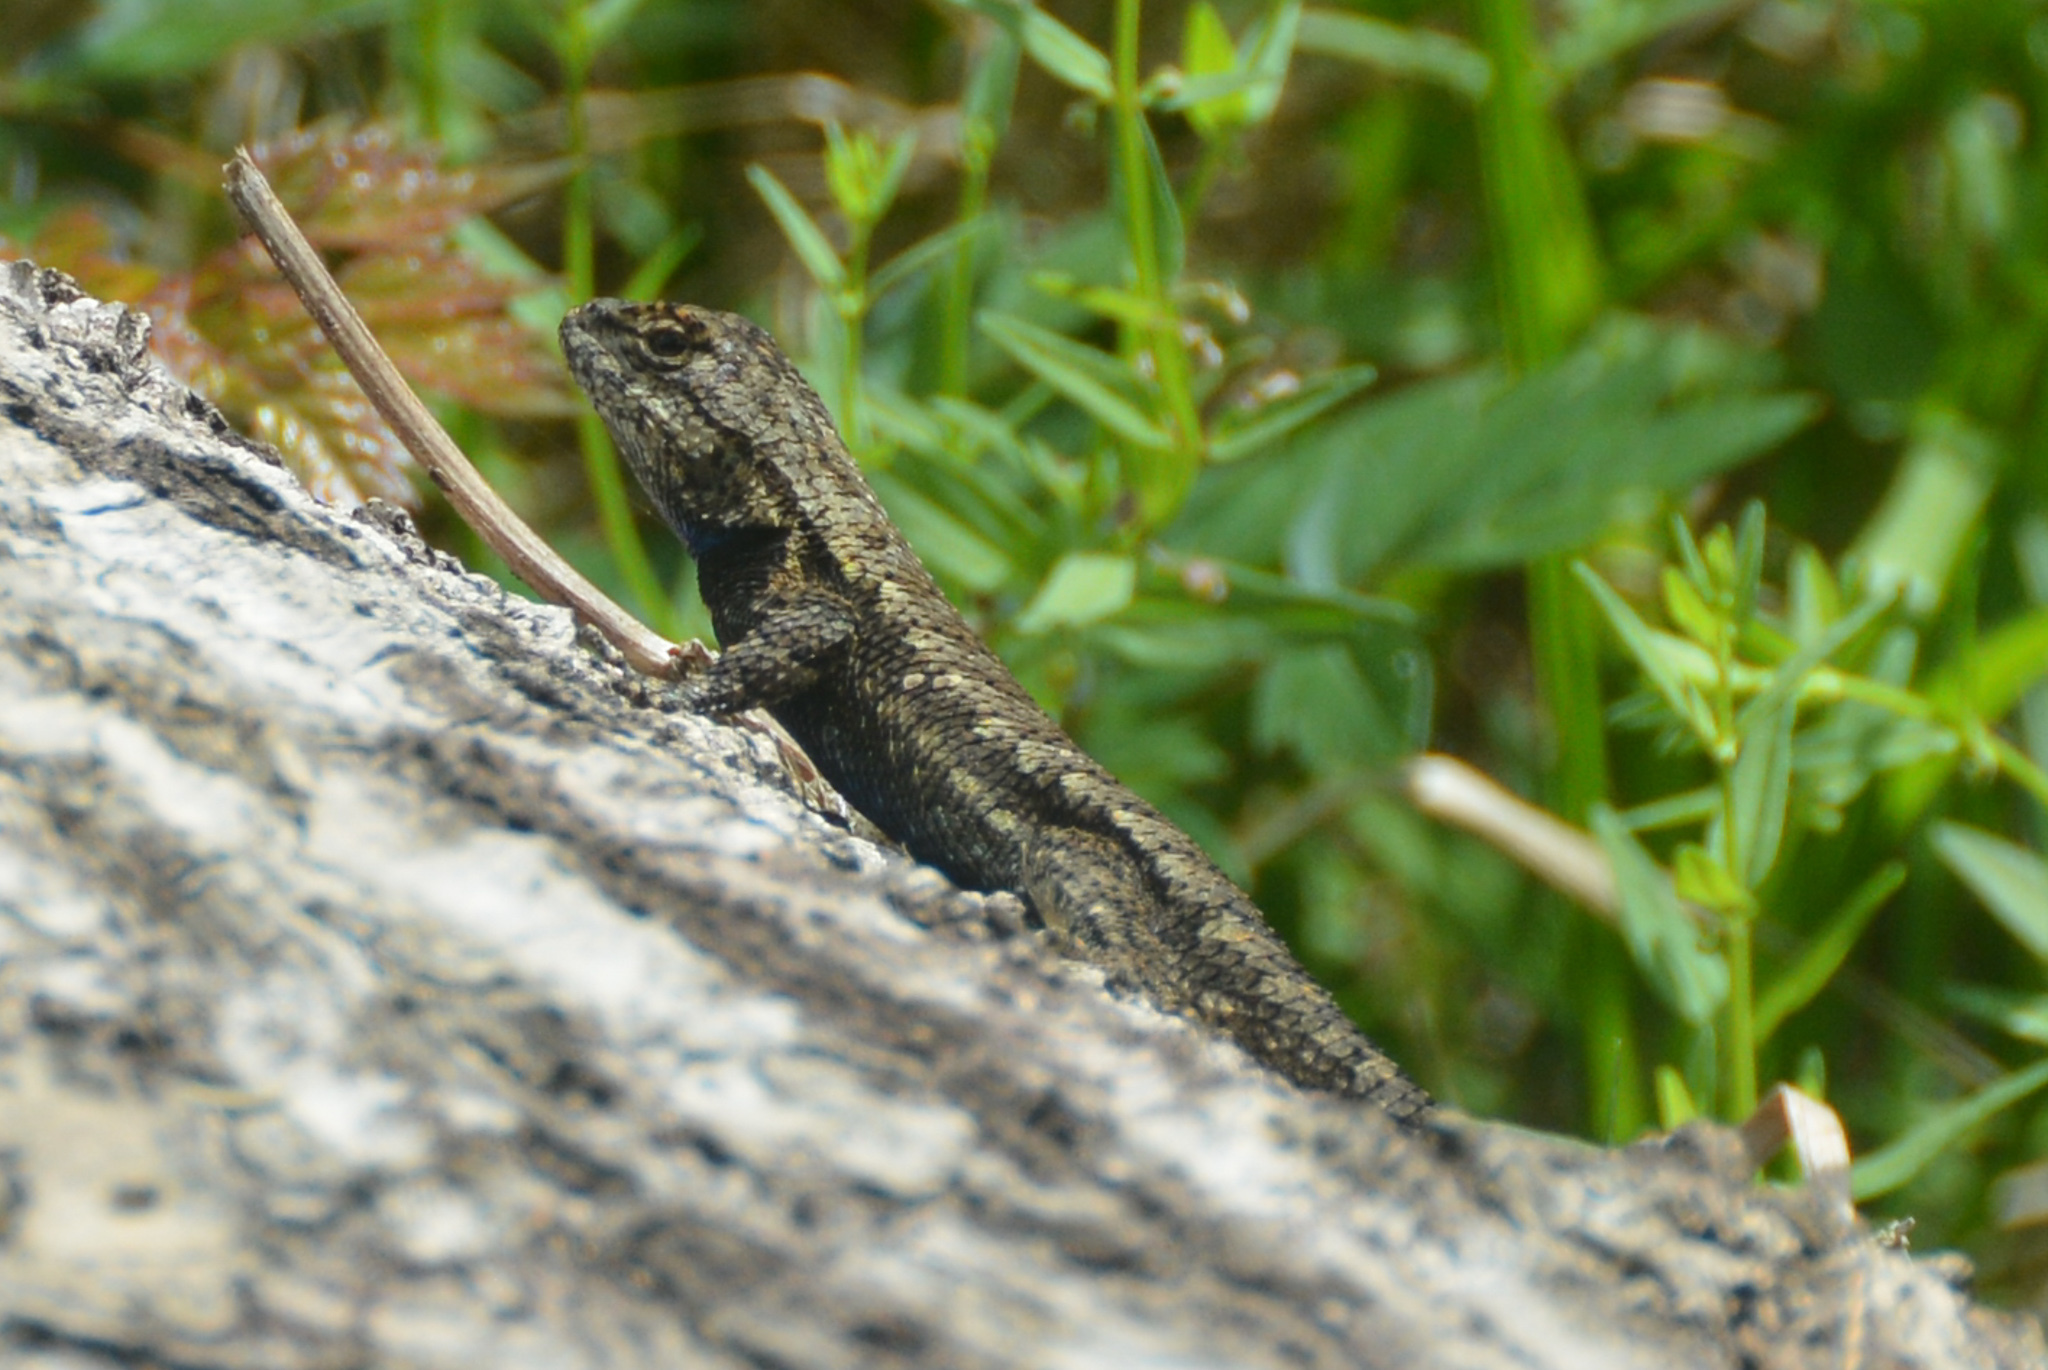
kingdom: Animalia
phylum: Chordata
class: Squamata
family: Phrynosomatidae
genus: Sceloporus
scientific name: Sceloporus consobrinus
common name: Southern prairie lizard
